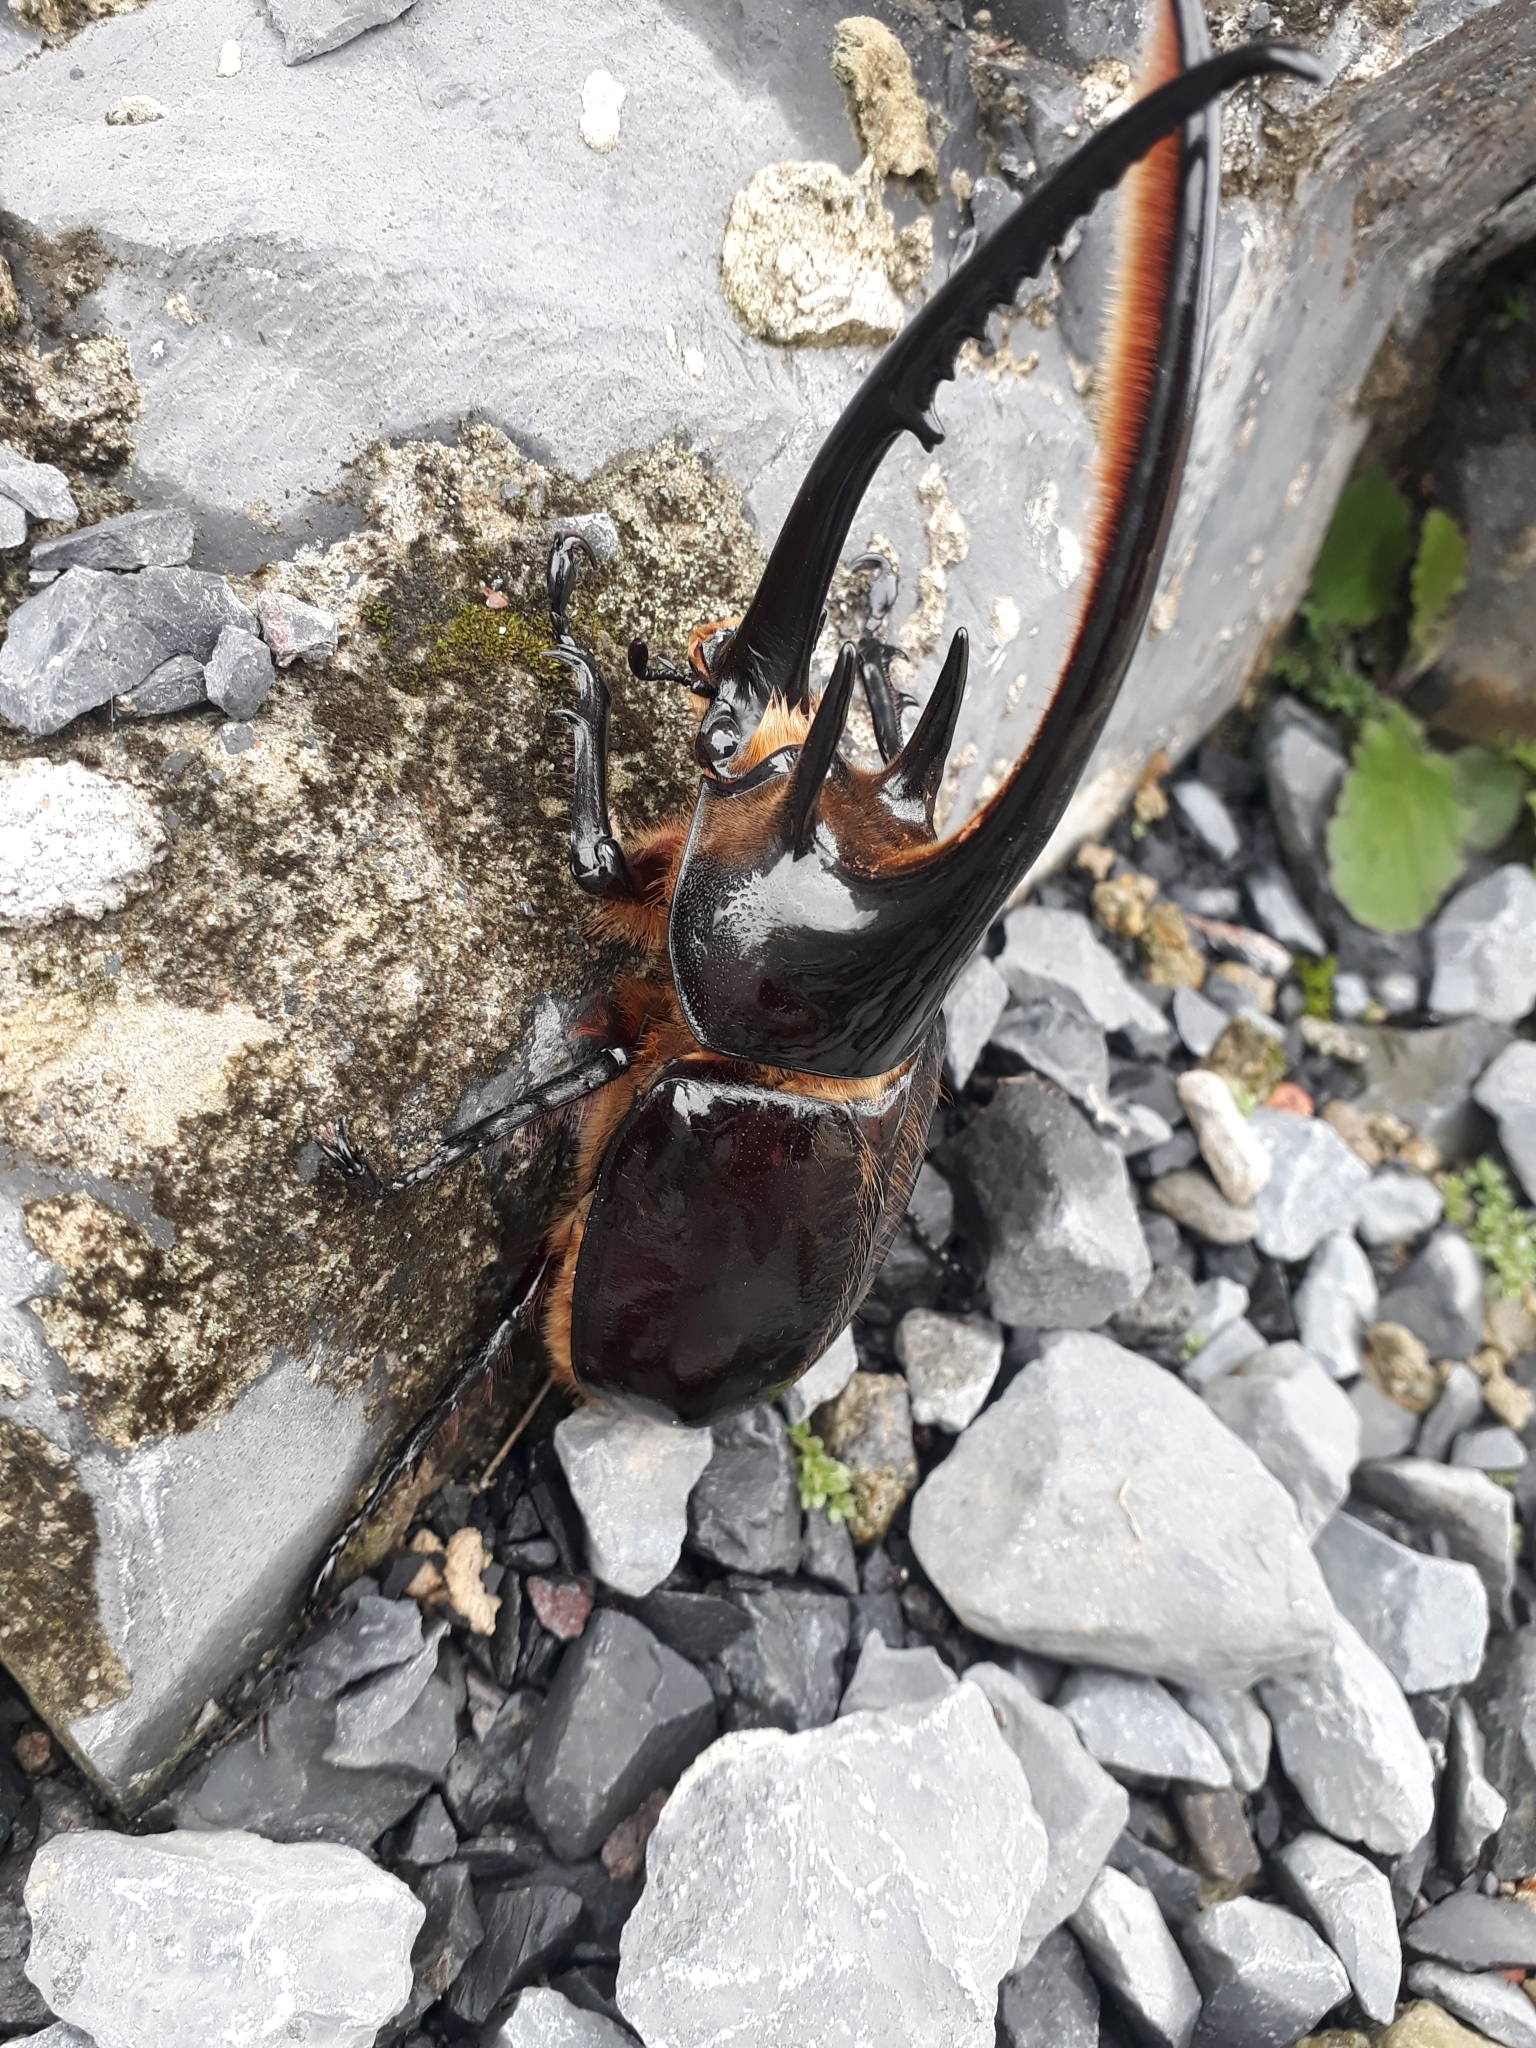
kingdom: Animalia
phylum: Arthropoda
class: Insecta
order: Coleoptera
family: Scarabaeidae
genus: Dynastes
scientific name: Dynastes neptunus
